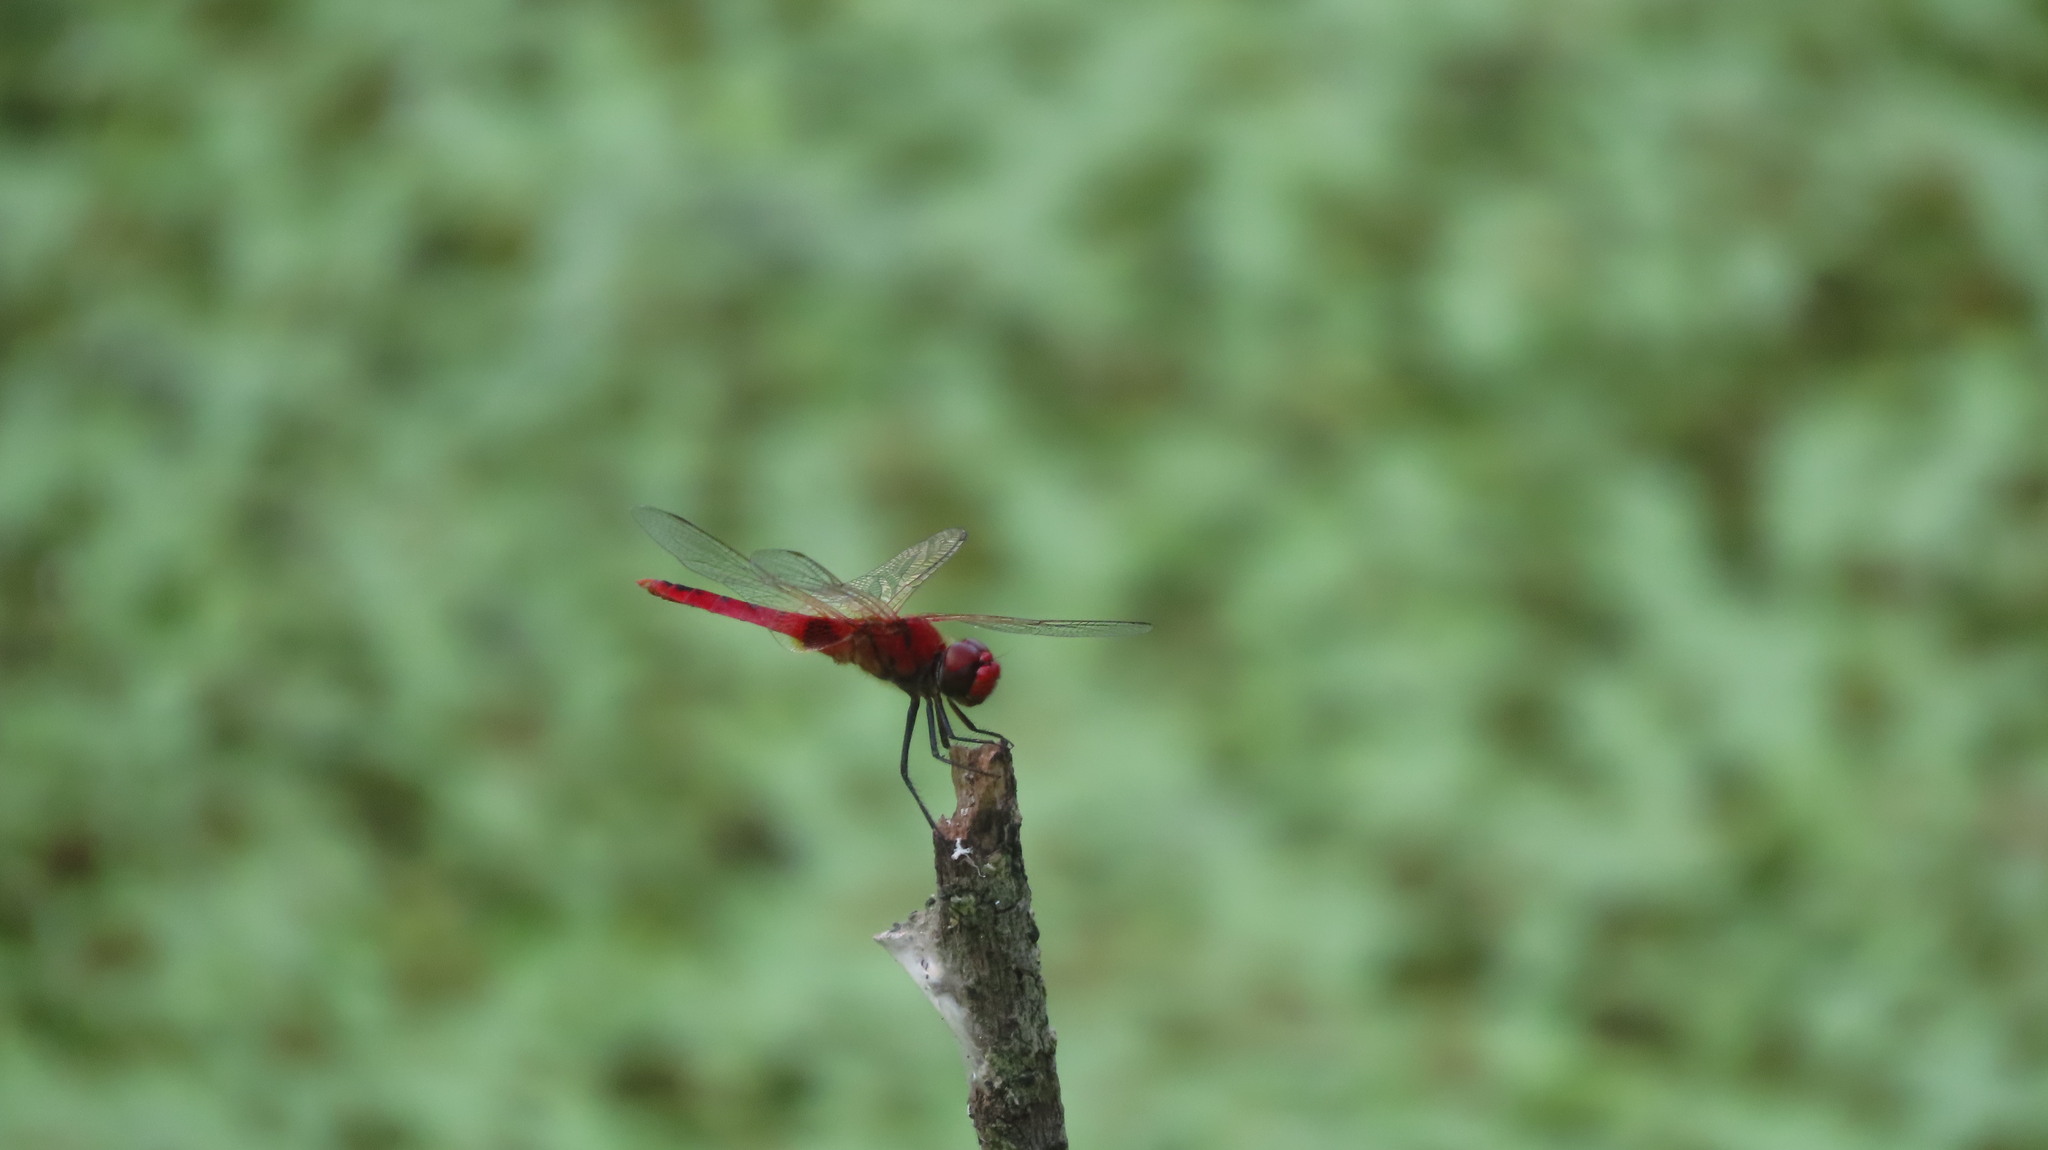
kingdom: Animalia
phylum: Arthropoda
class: Insecta
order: Odonata
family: Libellulidae
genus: Urothemis
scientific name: Urothemis signata
